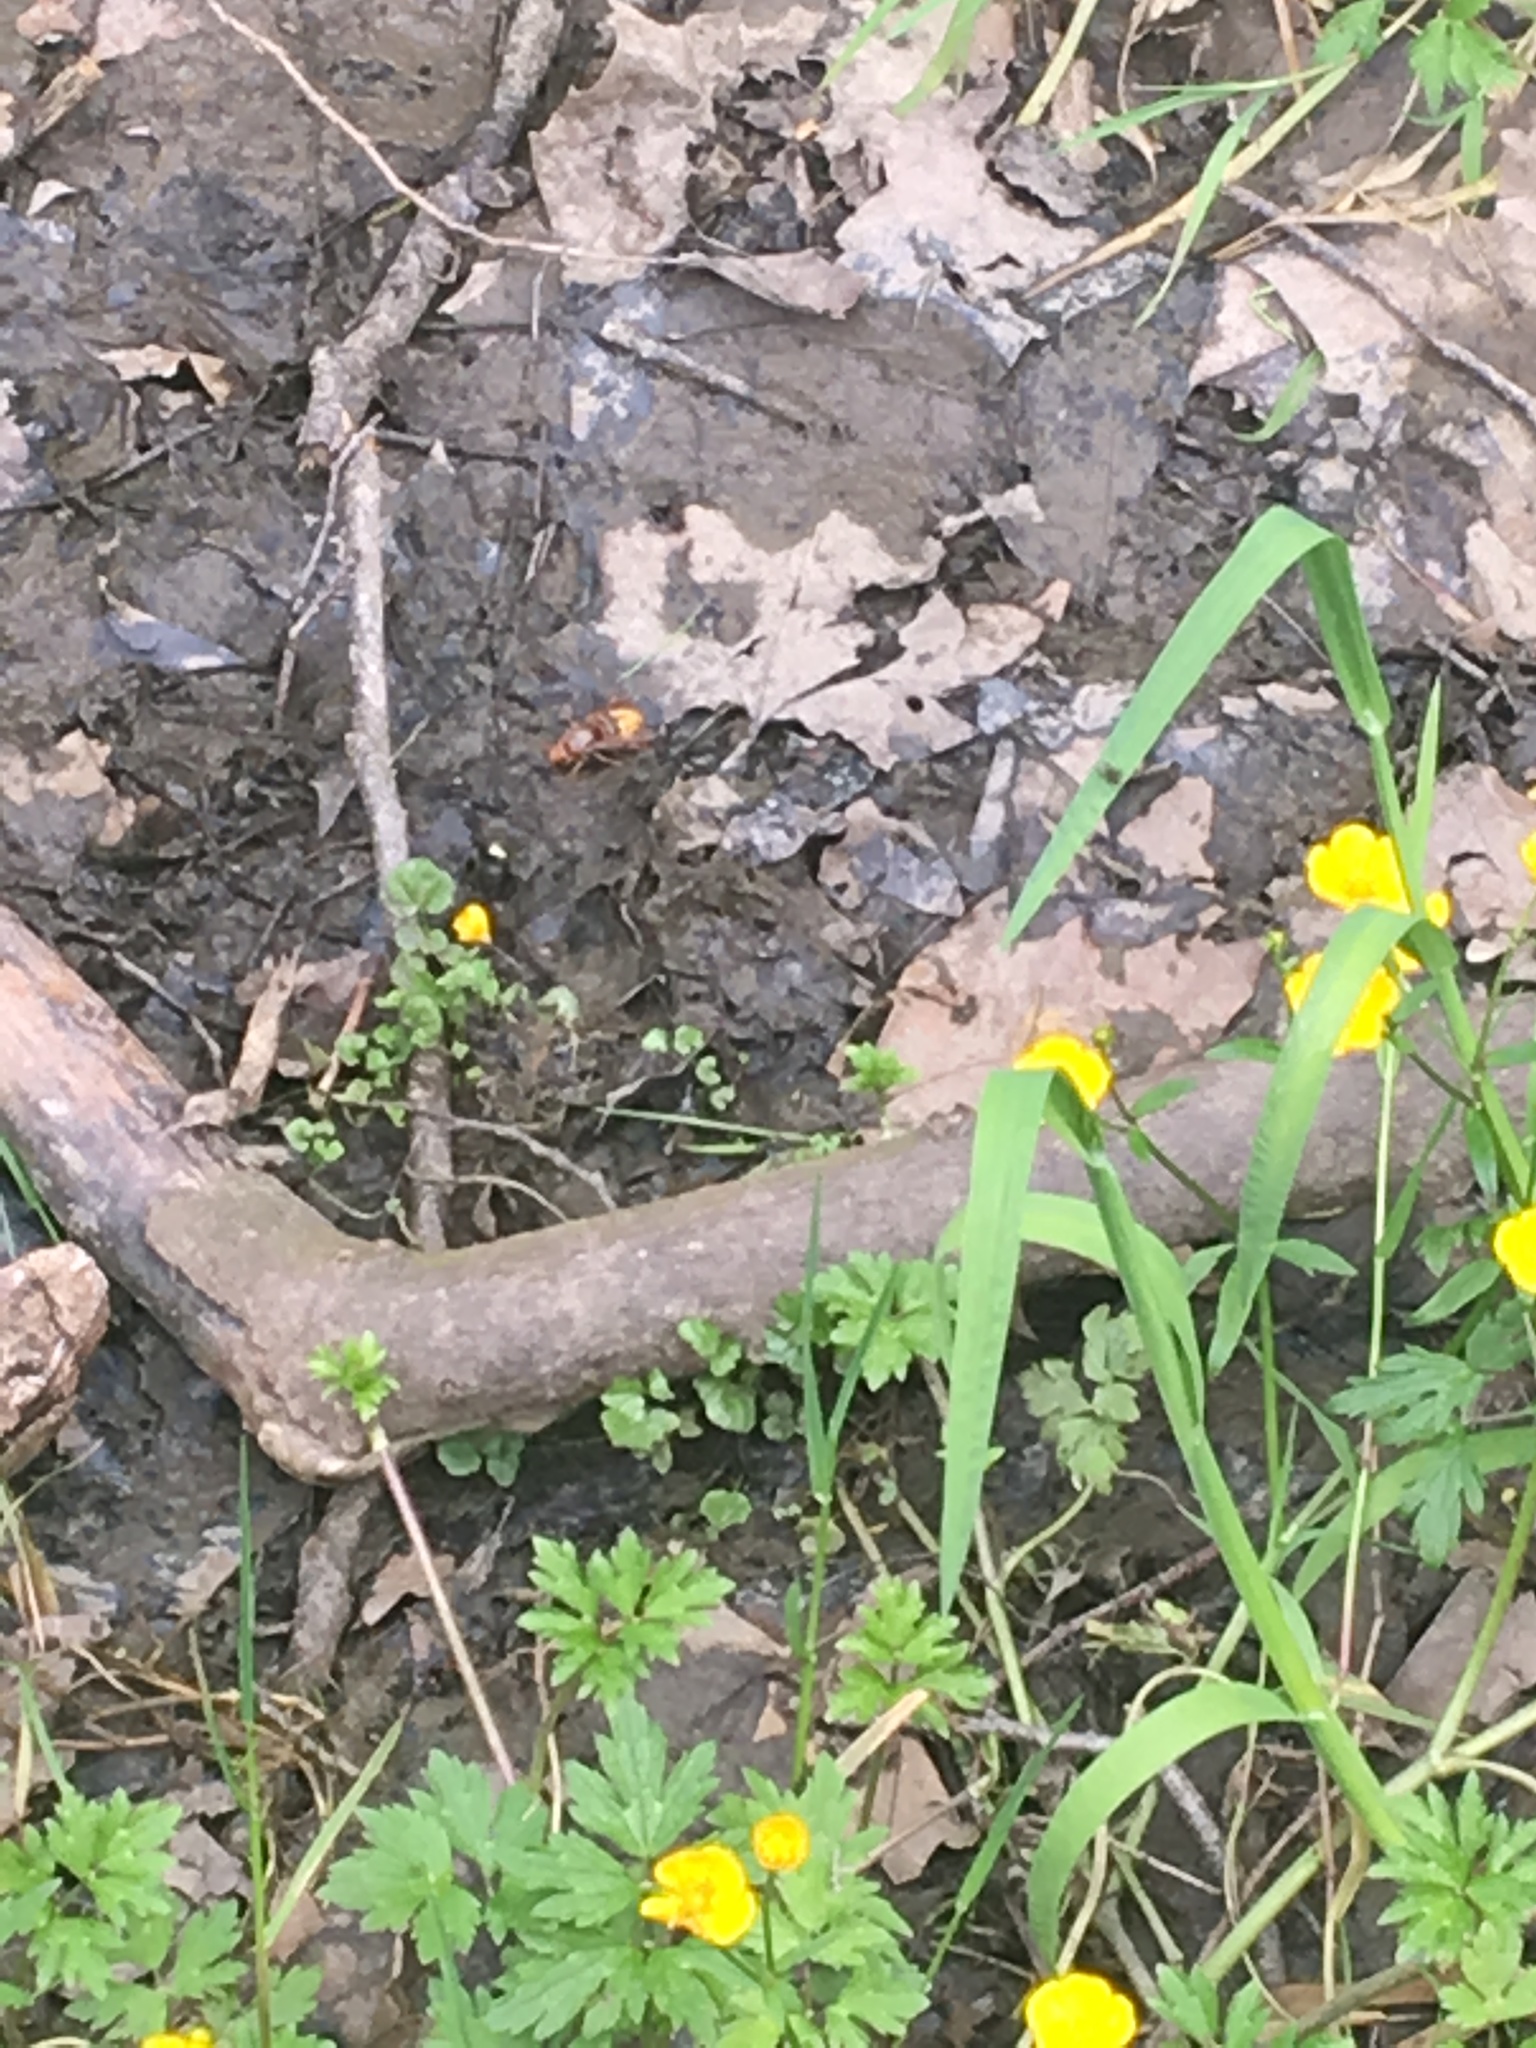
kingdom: Animalia
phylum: Arthropoda
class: Insecta
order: Hymenoptera
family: Vespidae
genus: Vespa
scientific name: Vespa crabro
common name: Hornet
